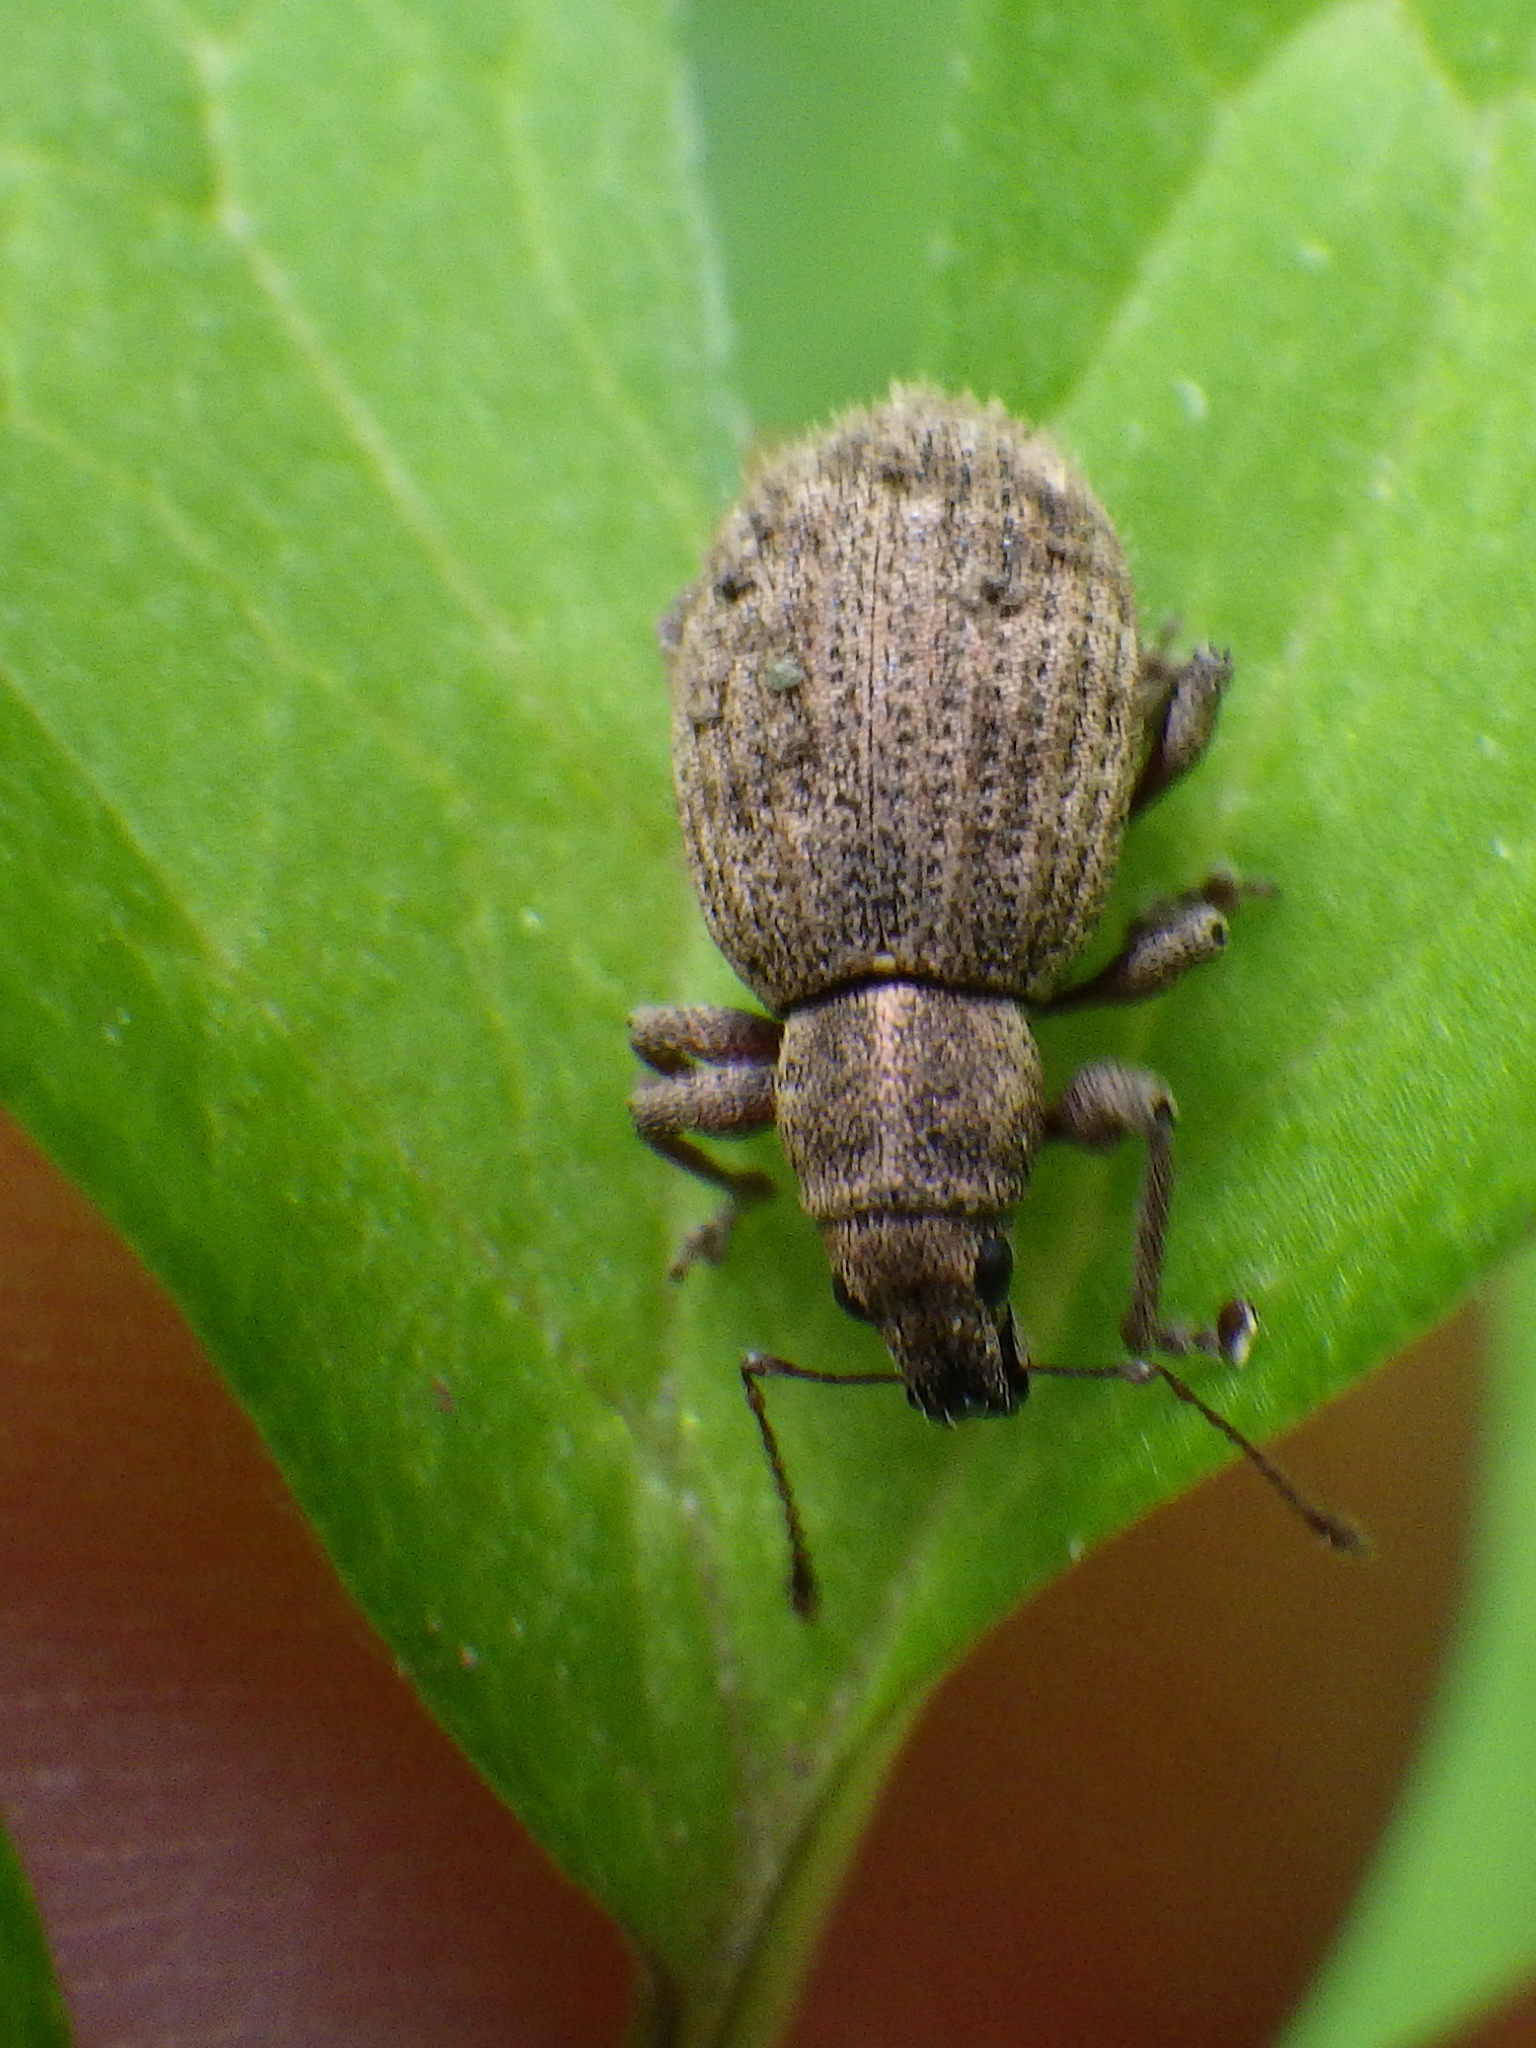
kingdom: Animalia
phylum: Arthropoda
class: Insecta
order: Coleoptera
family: Curculionidae
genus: Sciaphilus
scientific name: Sciaphilus asperatus
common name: Weevil
